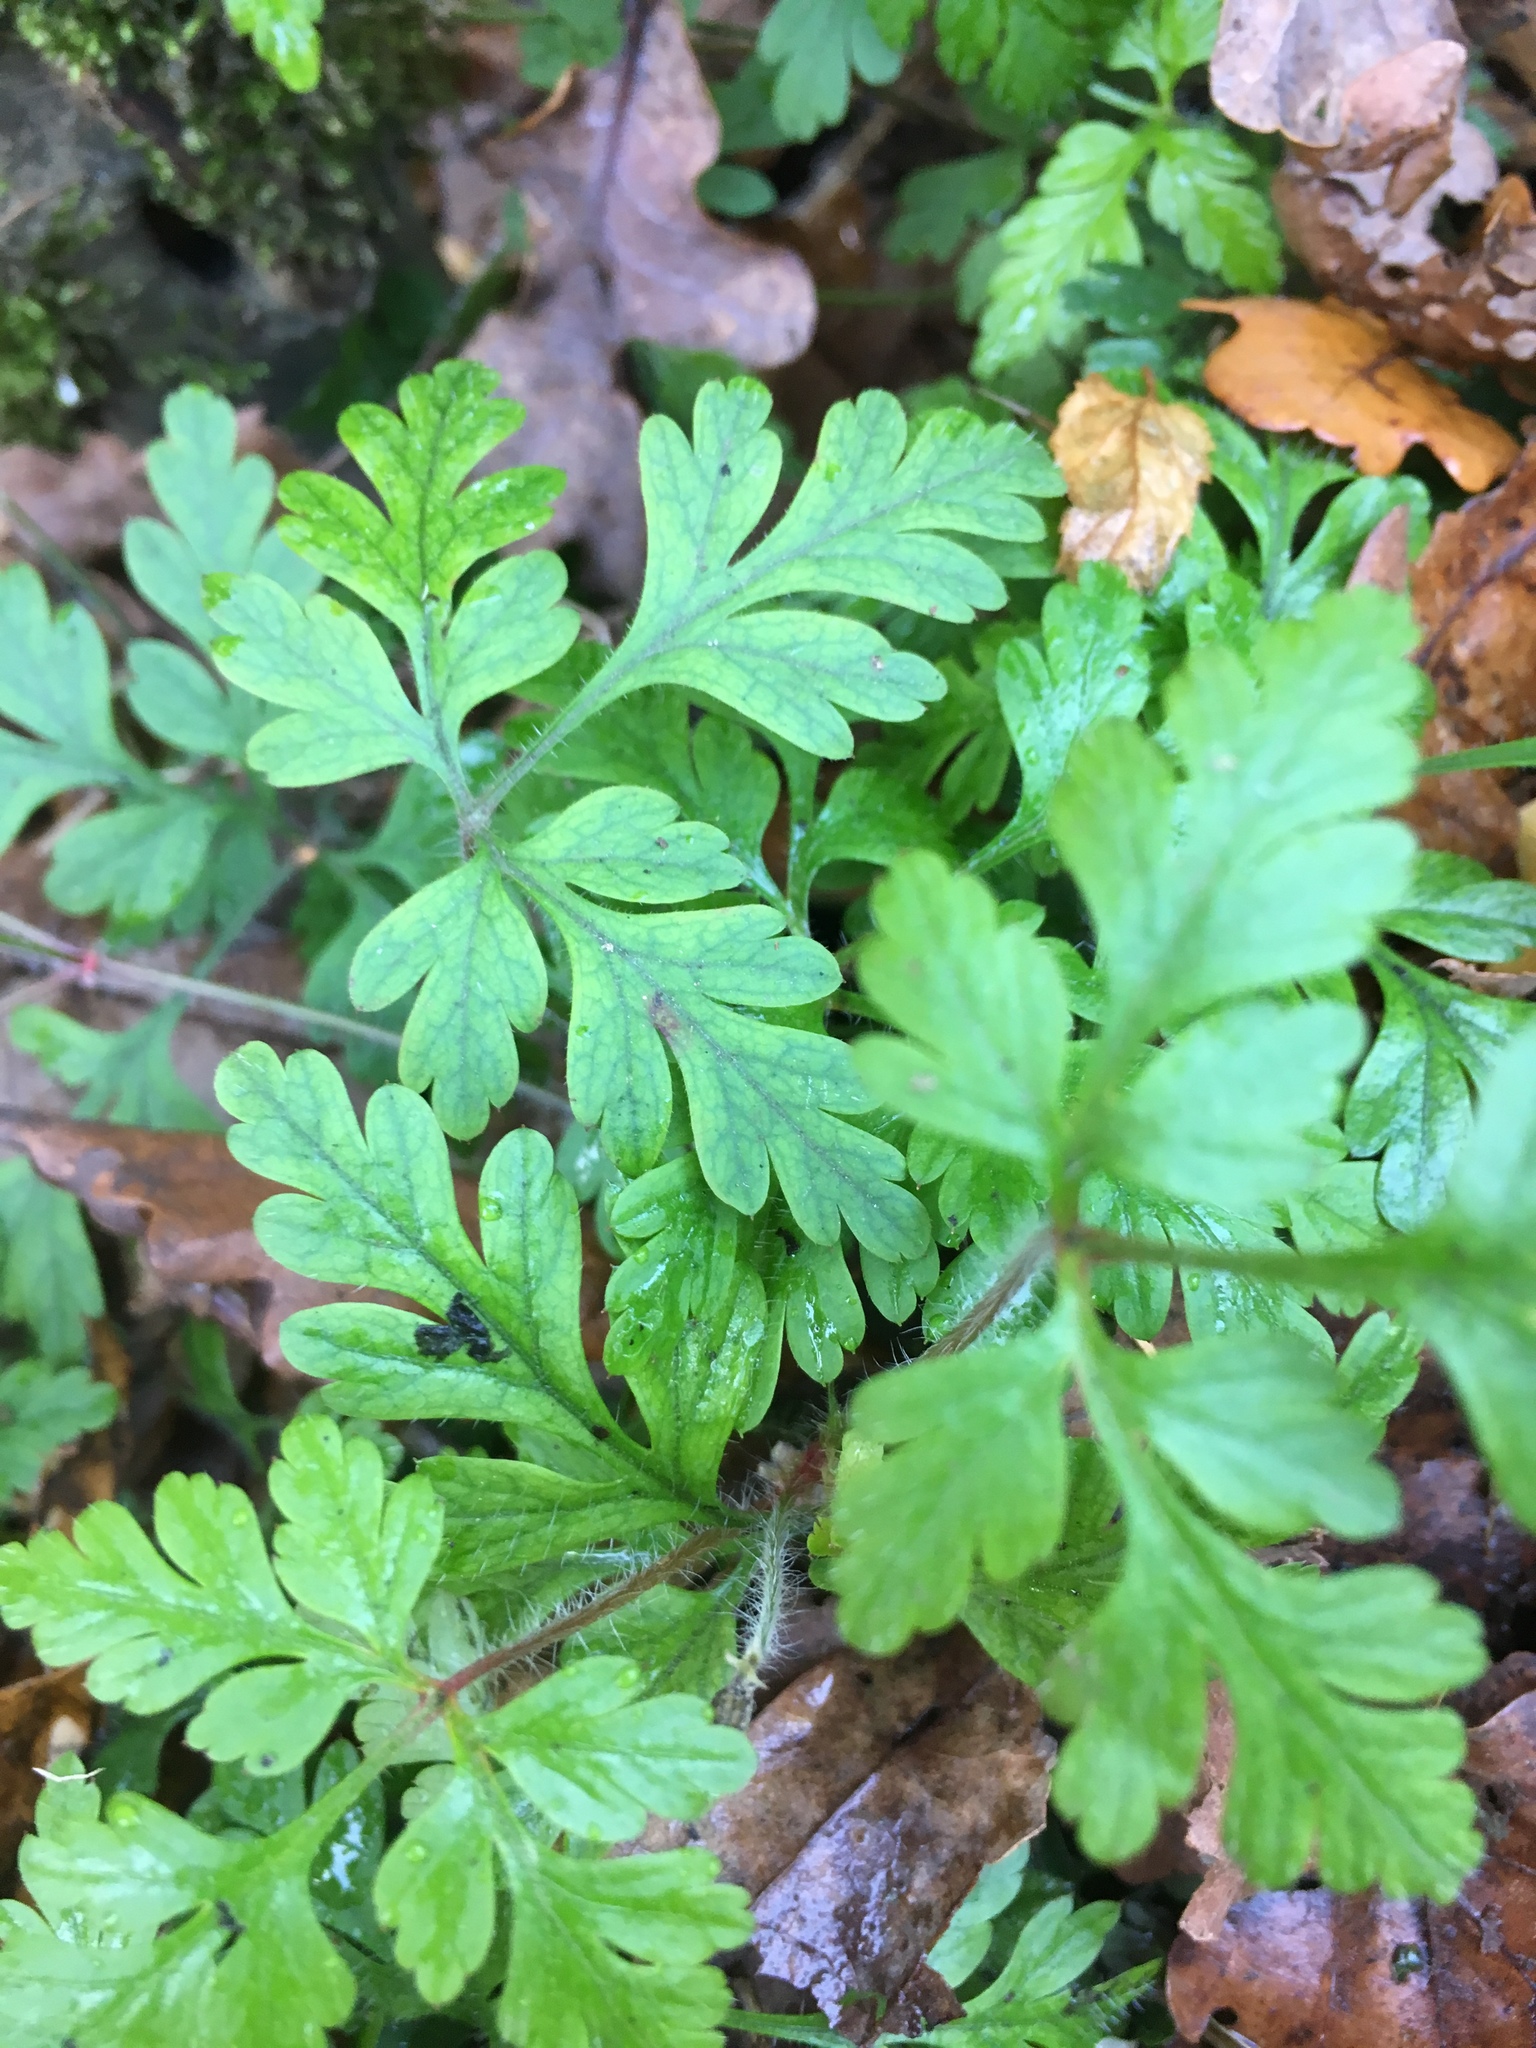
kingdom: Plantae
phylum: Tracheophyta
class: Magnoliopsida
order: Geraniales
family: Geraniaceae
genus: Geranium
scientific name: Geranium robertianum
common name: Herb-robert
